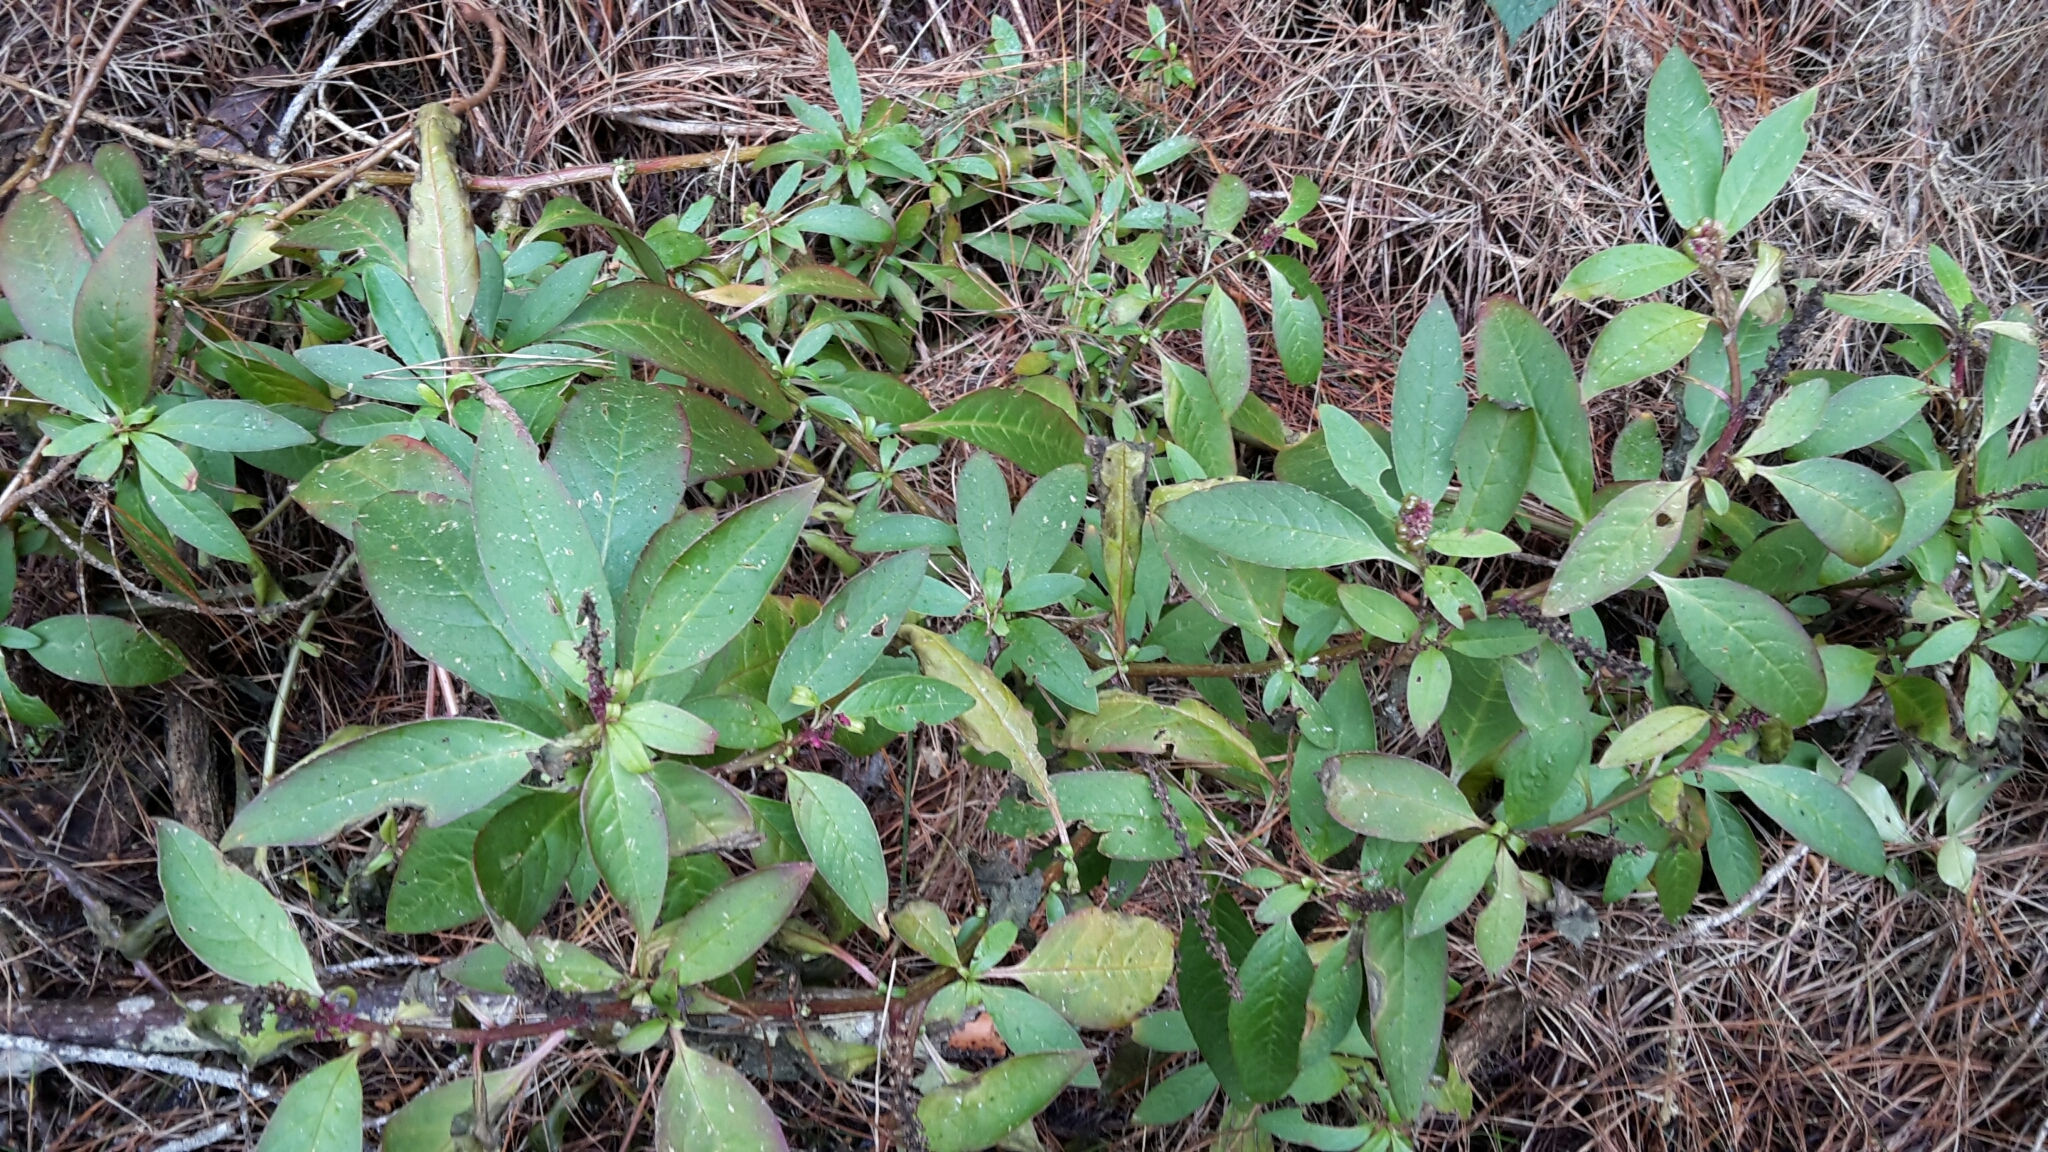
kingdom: Plantae
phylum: Tracheophyta
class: Magnoliopsida
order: Caryophyllales
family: Phytolaccaceae
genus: Phytolacca
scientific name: Phytolacca icosandra
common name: Button pokeweed
